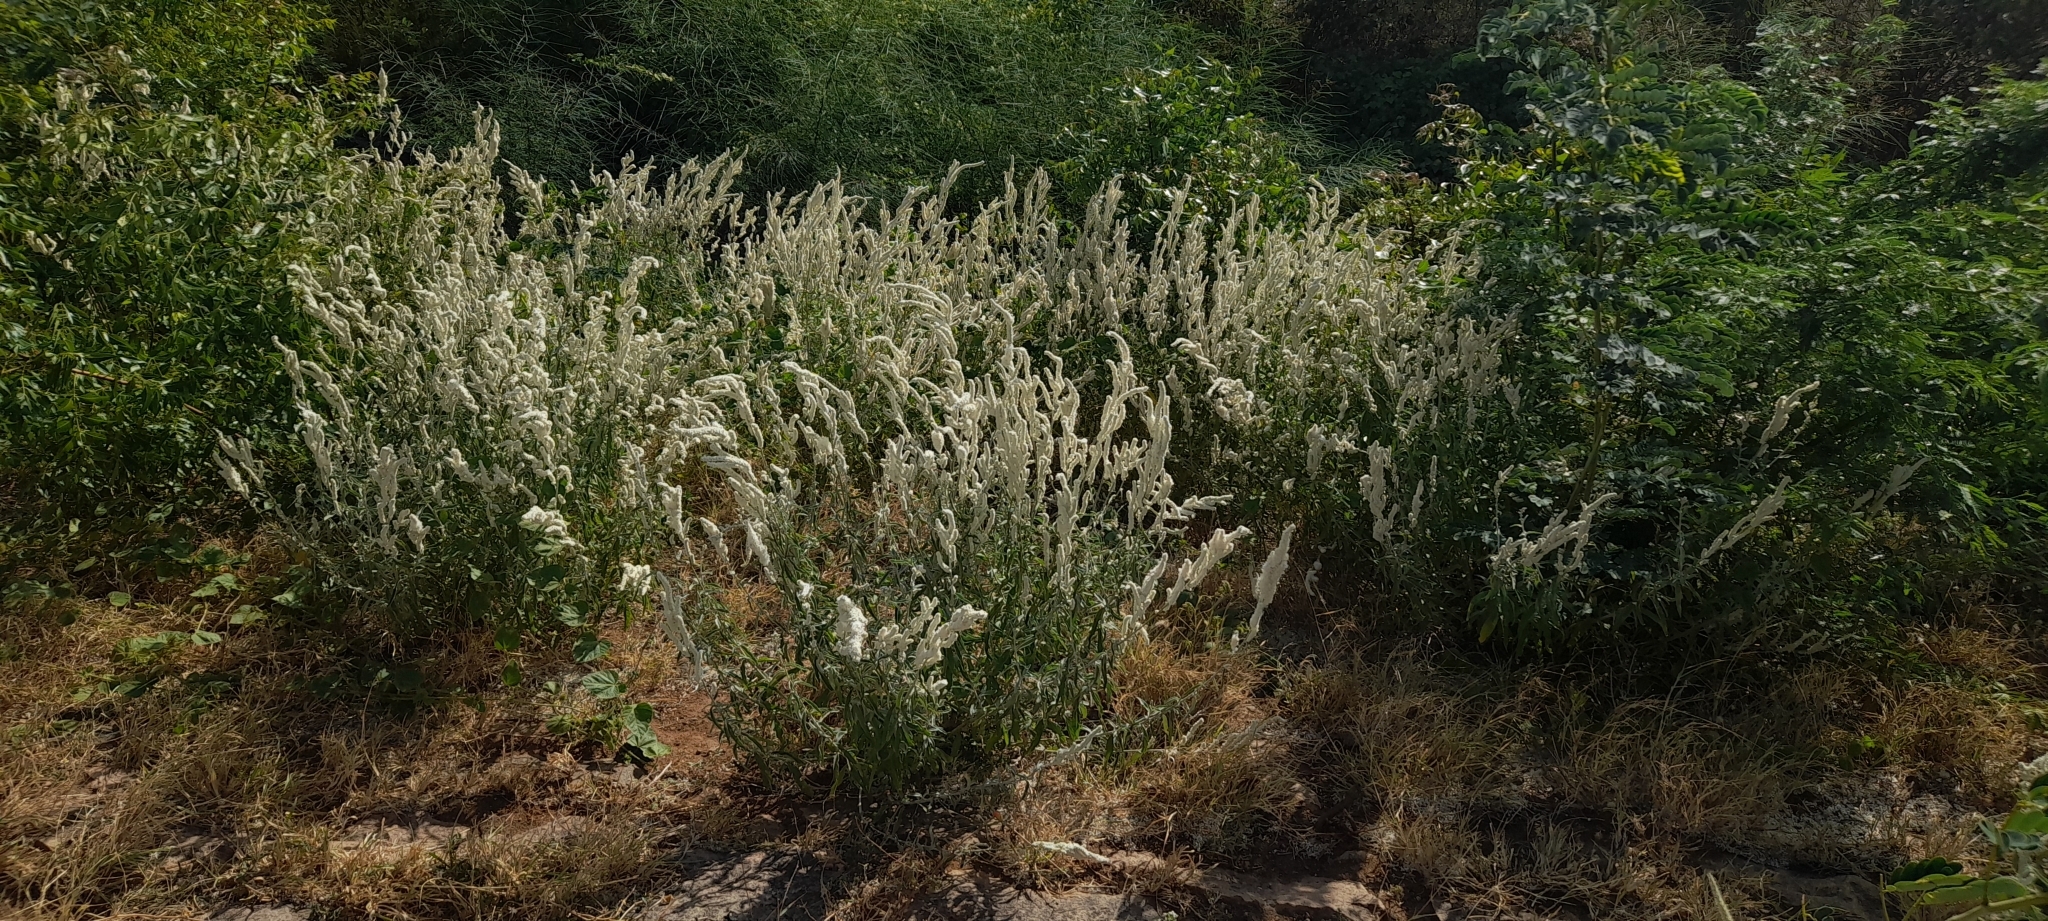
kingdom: Plantae
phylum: Tracheophyta
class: Magnoliopsida
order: Caryophyllales
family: Amaranthaceae
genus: Aerva
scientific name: Aerva javanica
